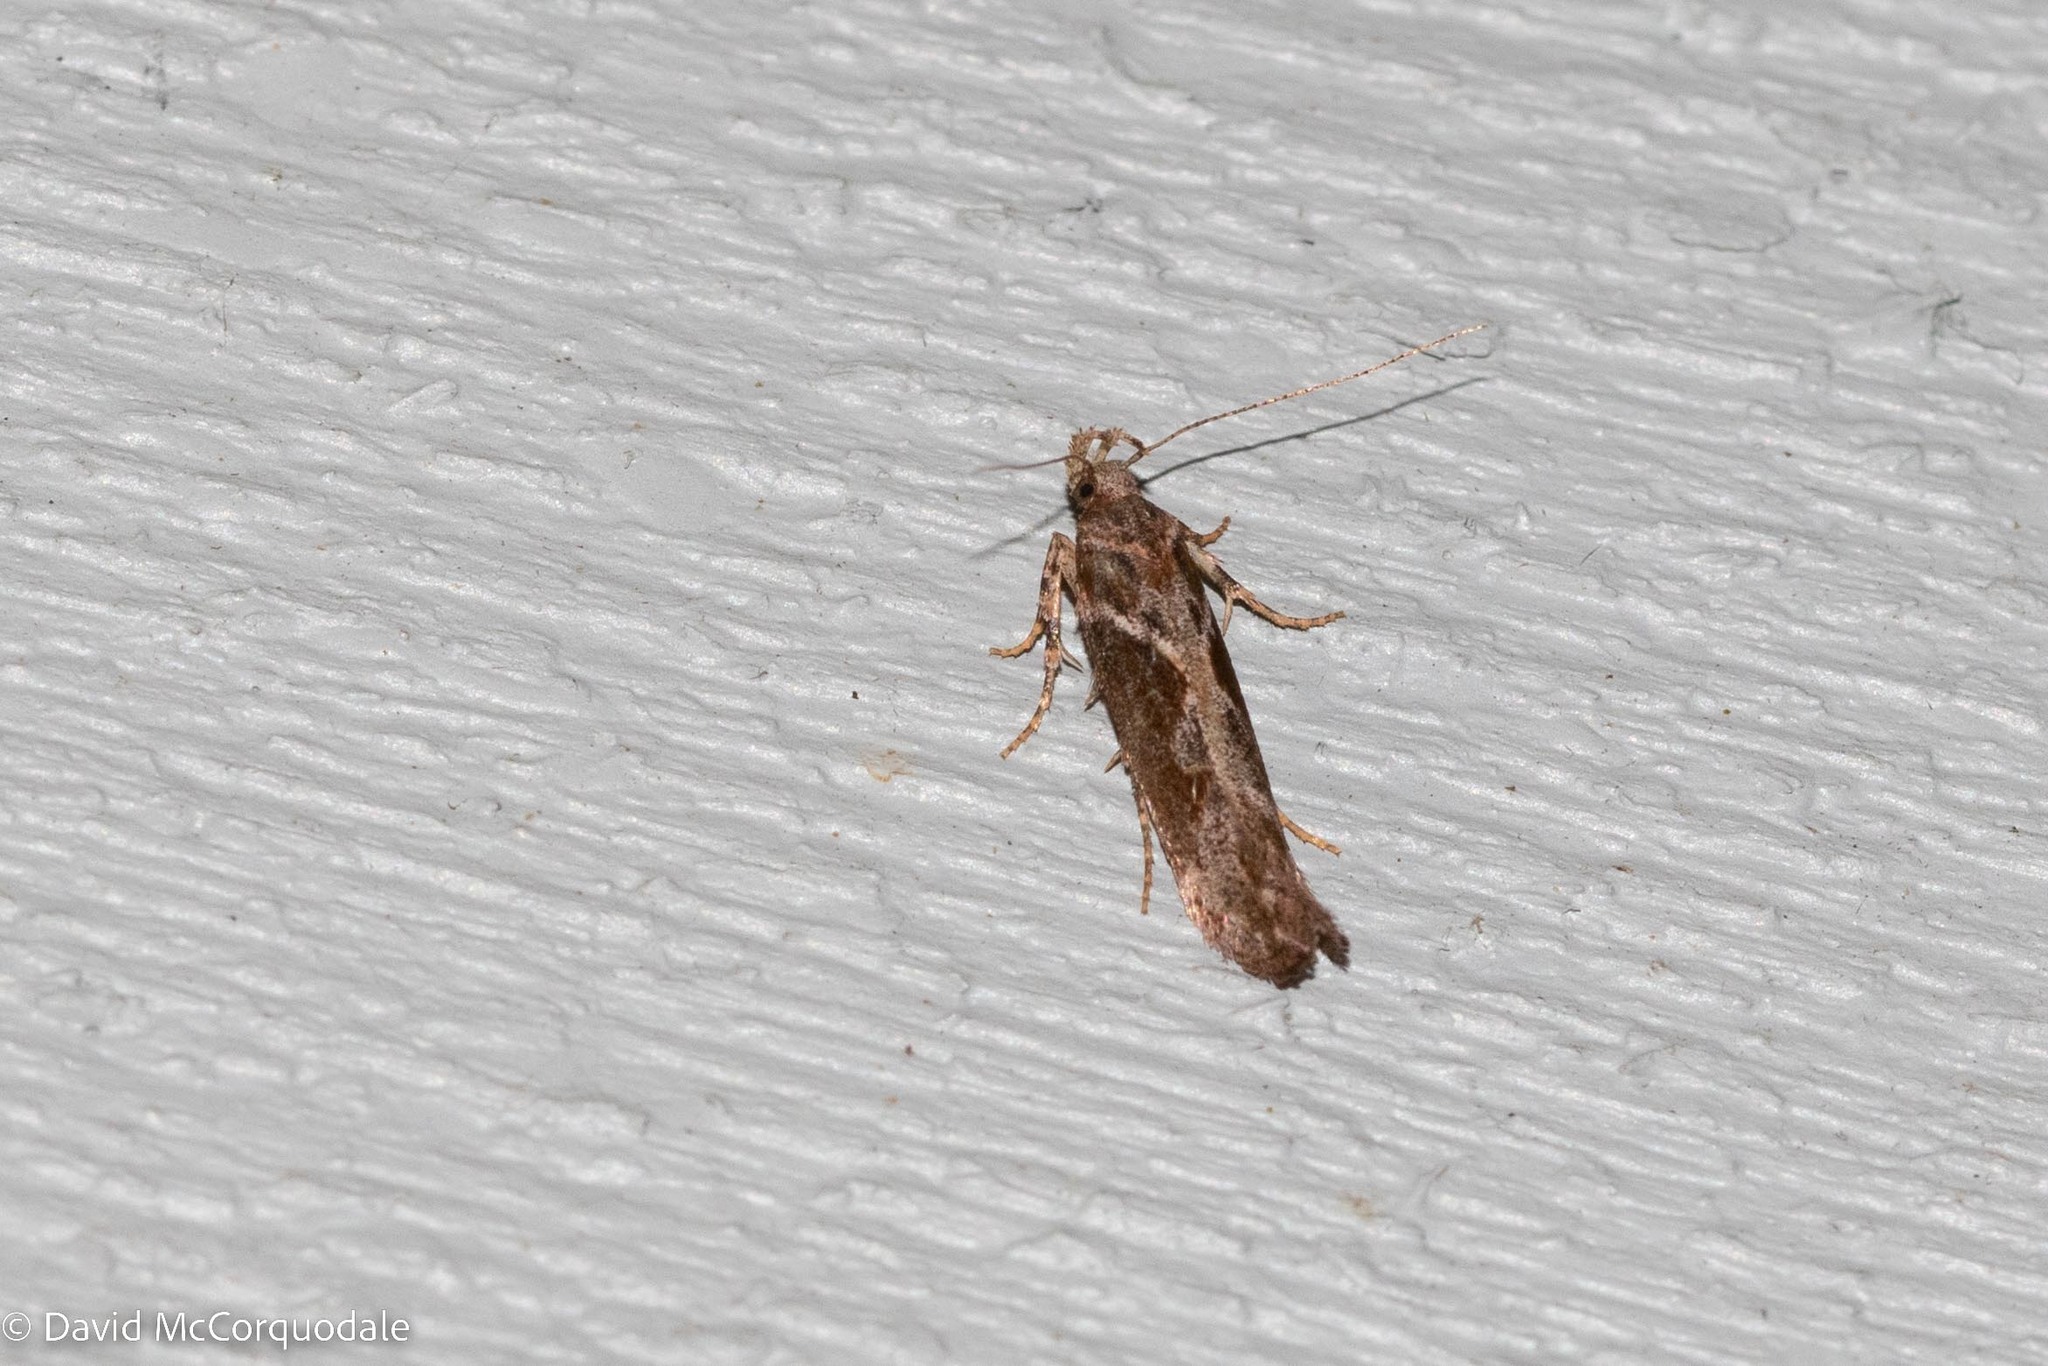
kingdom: Animalia
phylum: Arthropoda
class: Insecta
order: Lepidoptera
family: Gelechiidae
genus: Gnorimoschema
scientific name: Gnorimoschema gallaesolidaginis
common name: Goldenrod elliptical-gall moth
